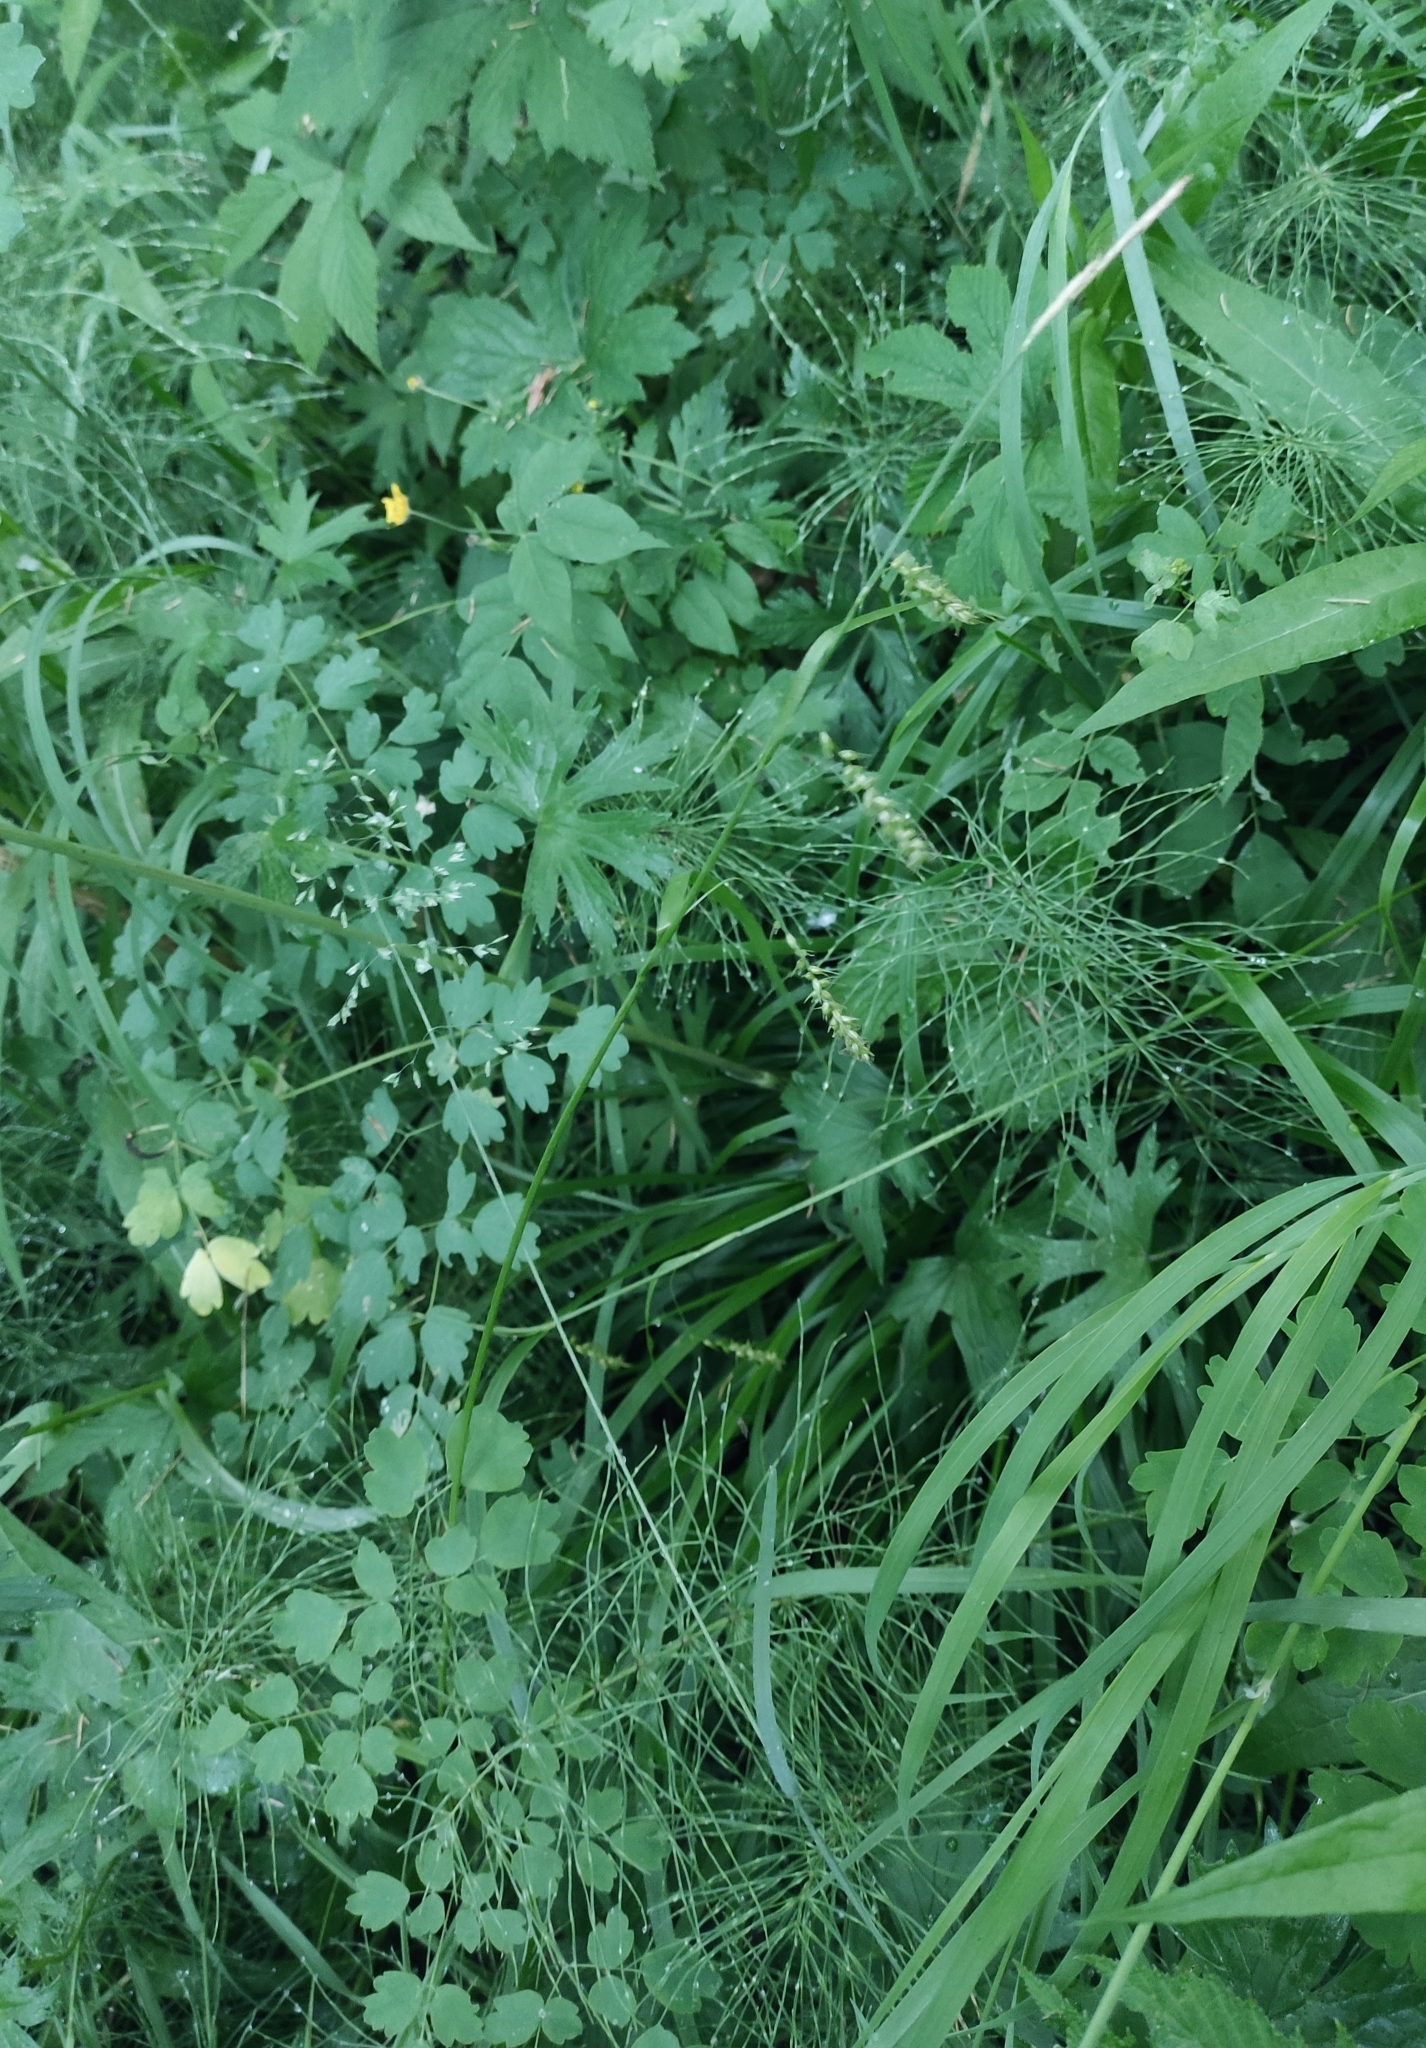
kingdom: Plantae
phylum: Tracheophyta
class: Liliopsida
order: Poales
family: Cyperaceae
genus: Carex
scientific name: Carex arnellii
